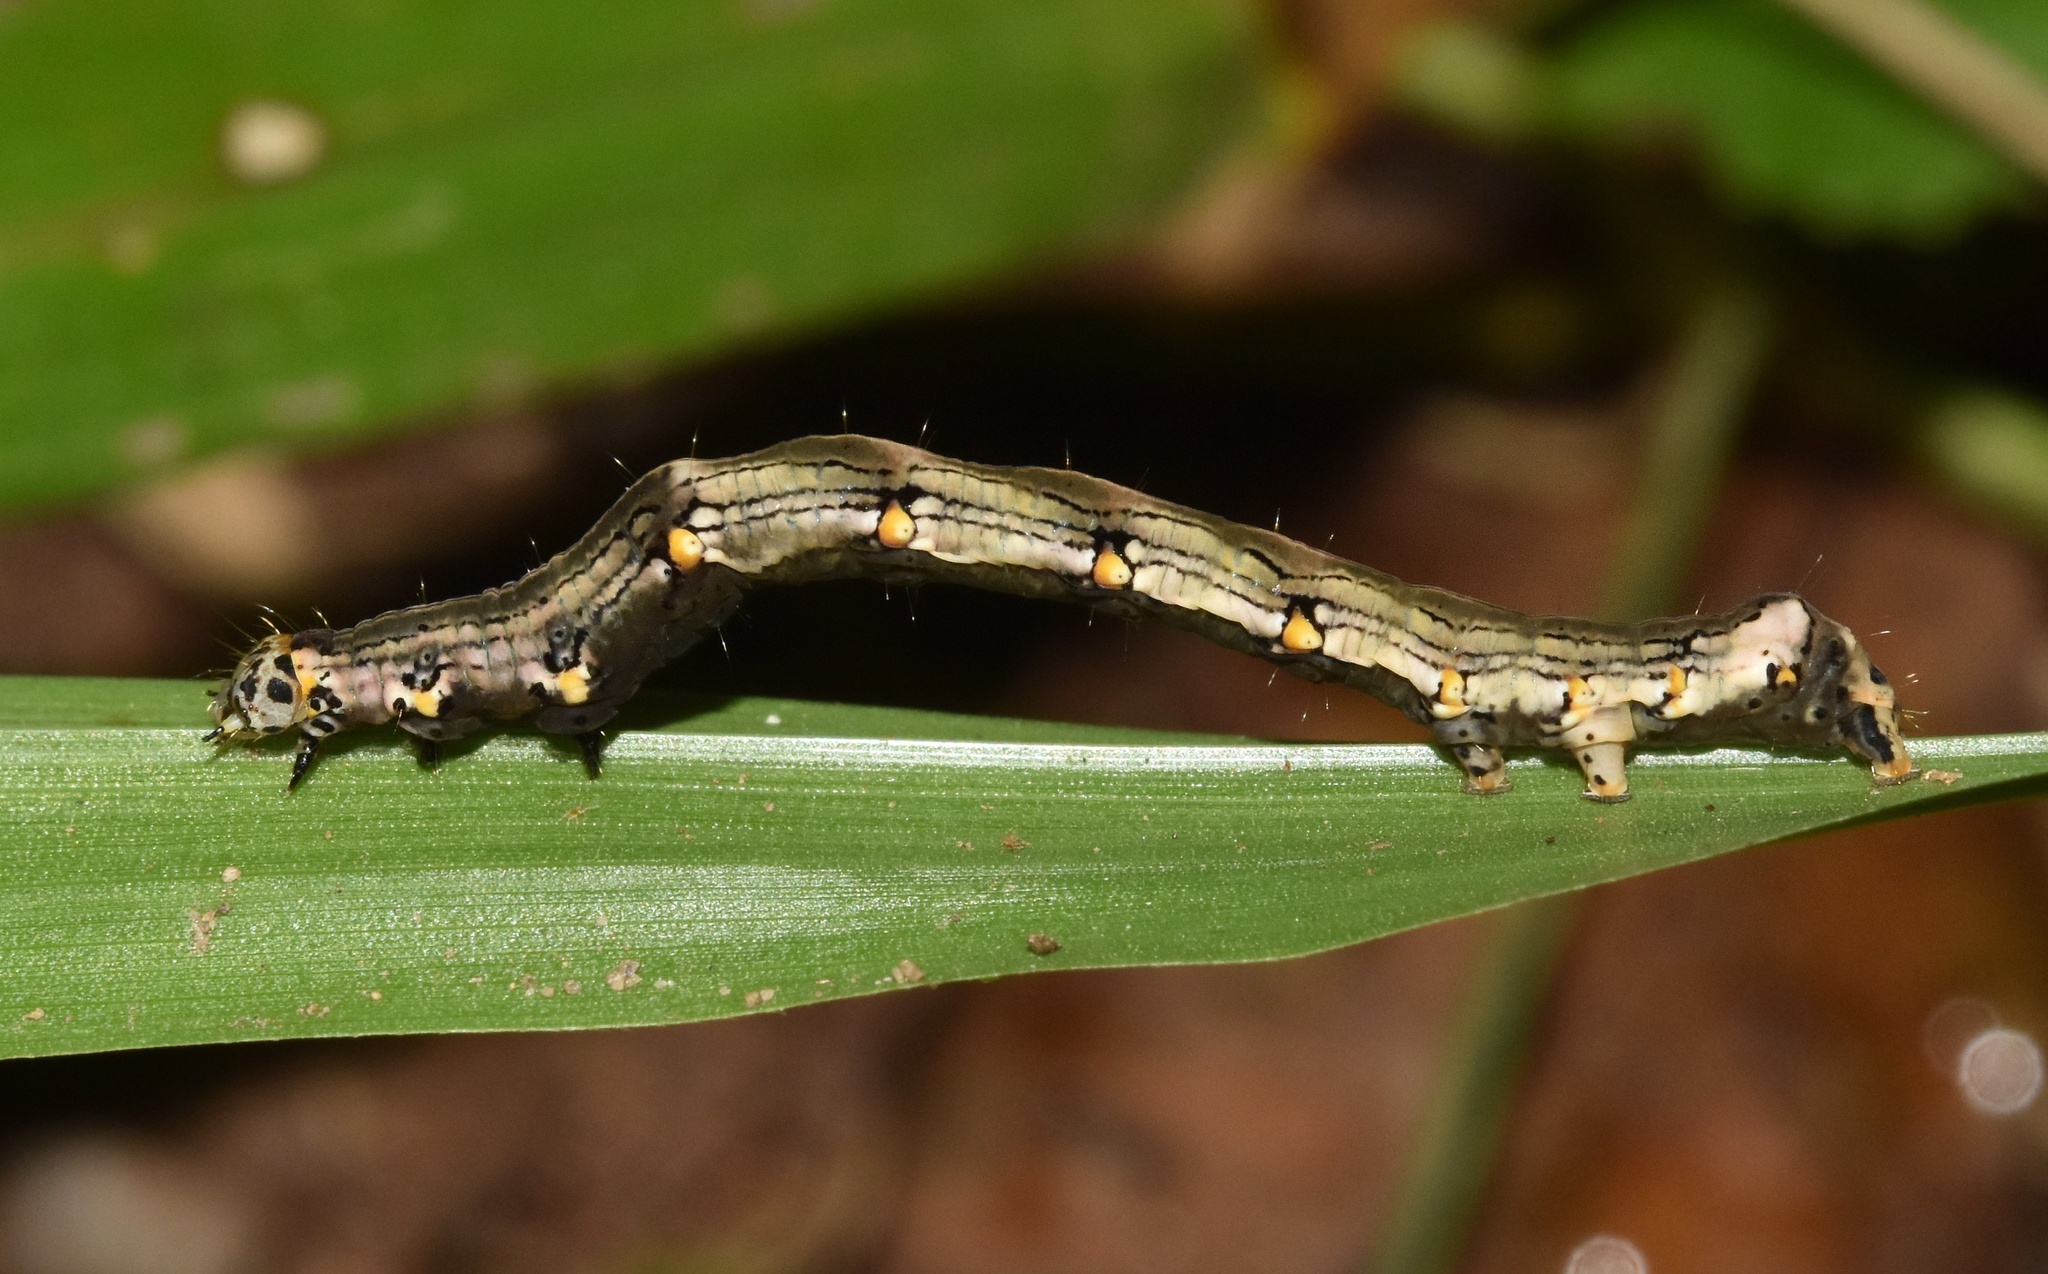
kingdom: Animalia
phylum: Arthropoda
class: Insecta
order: Lepidoptera
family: Noctuidae
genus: Ozarba
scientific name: Ozarba abscissa
